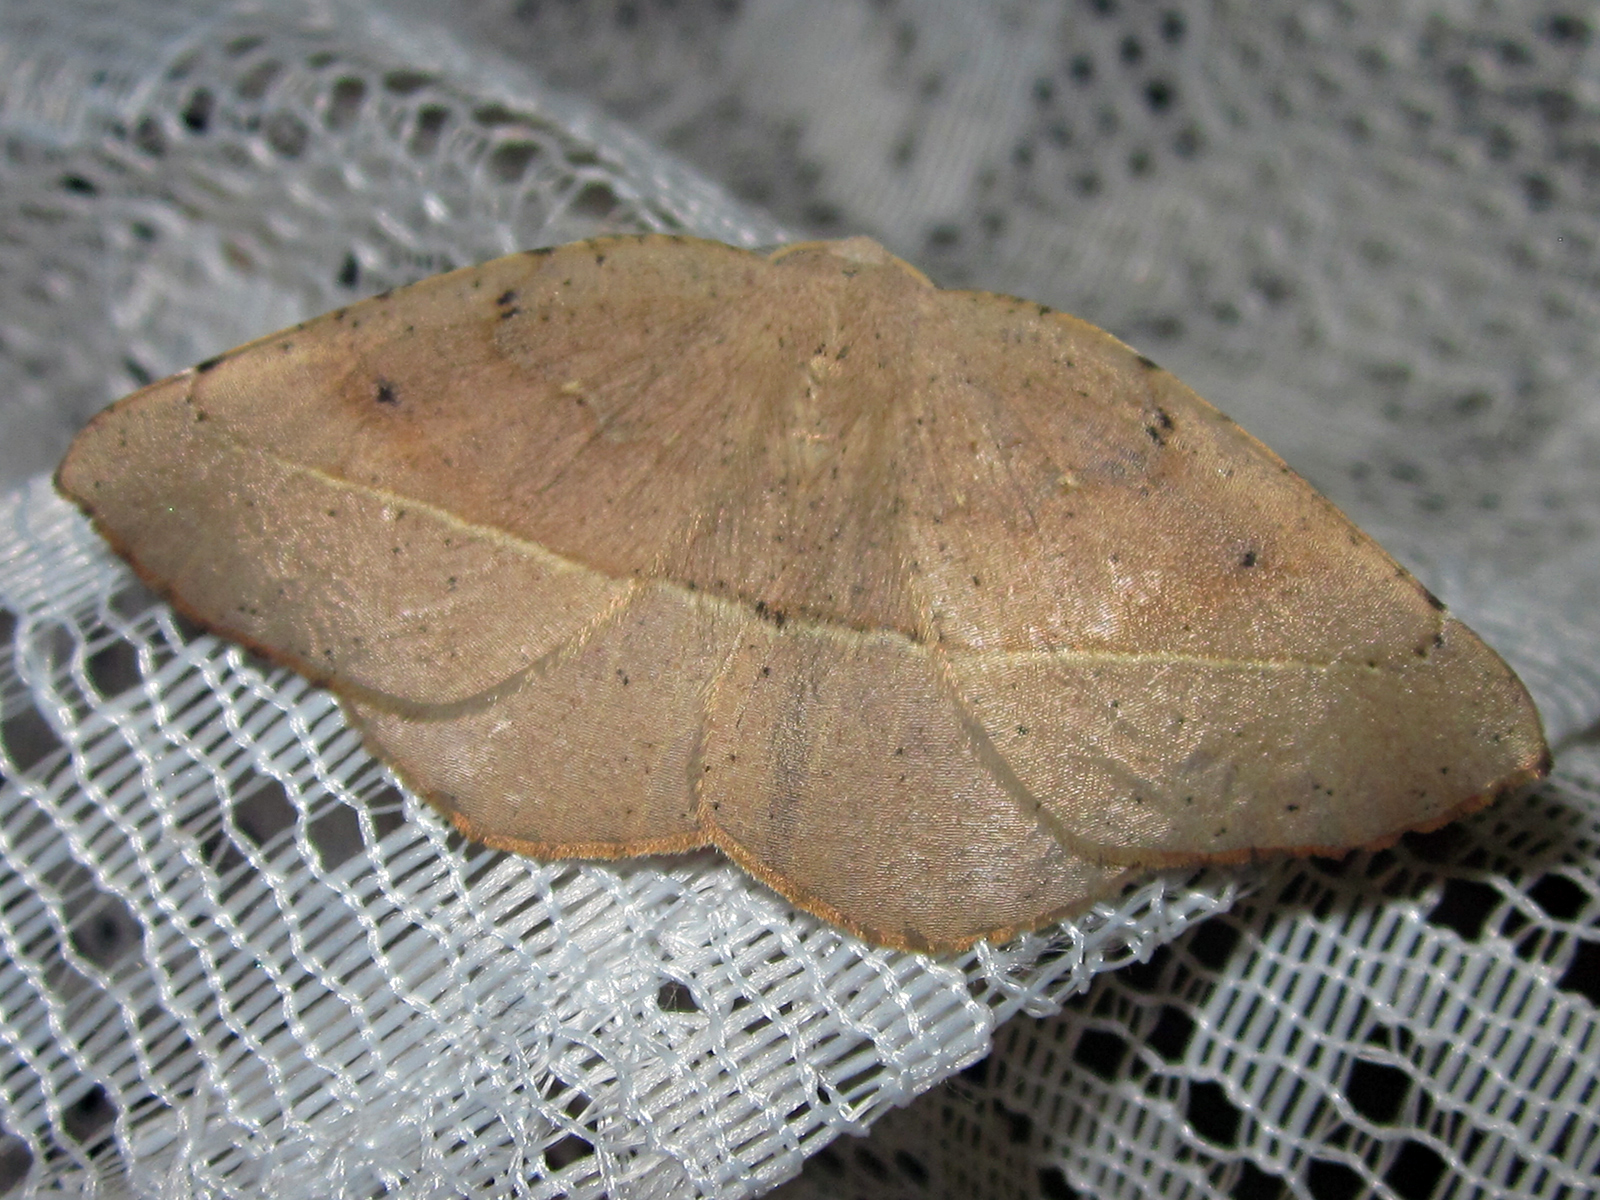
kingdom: Animalia
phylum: Arthropoda
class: Insecta
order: Lepidoptera
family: Geometridae
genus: Syncirsodes
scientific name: Syncirsodes primata
